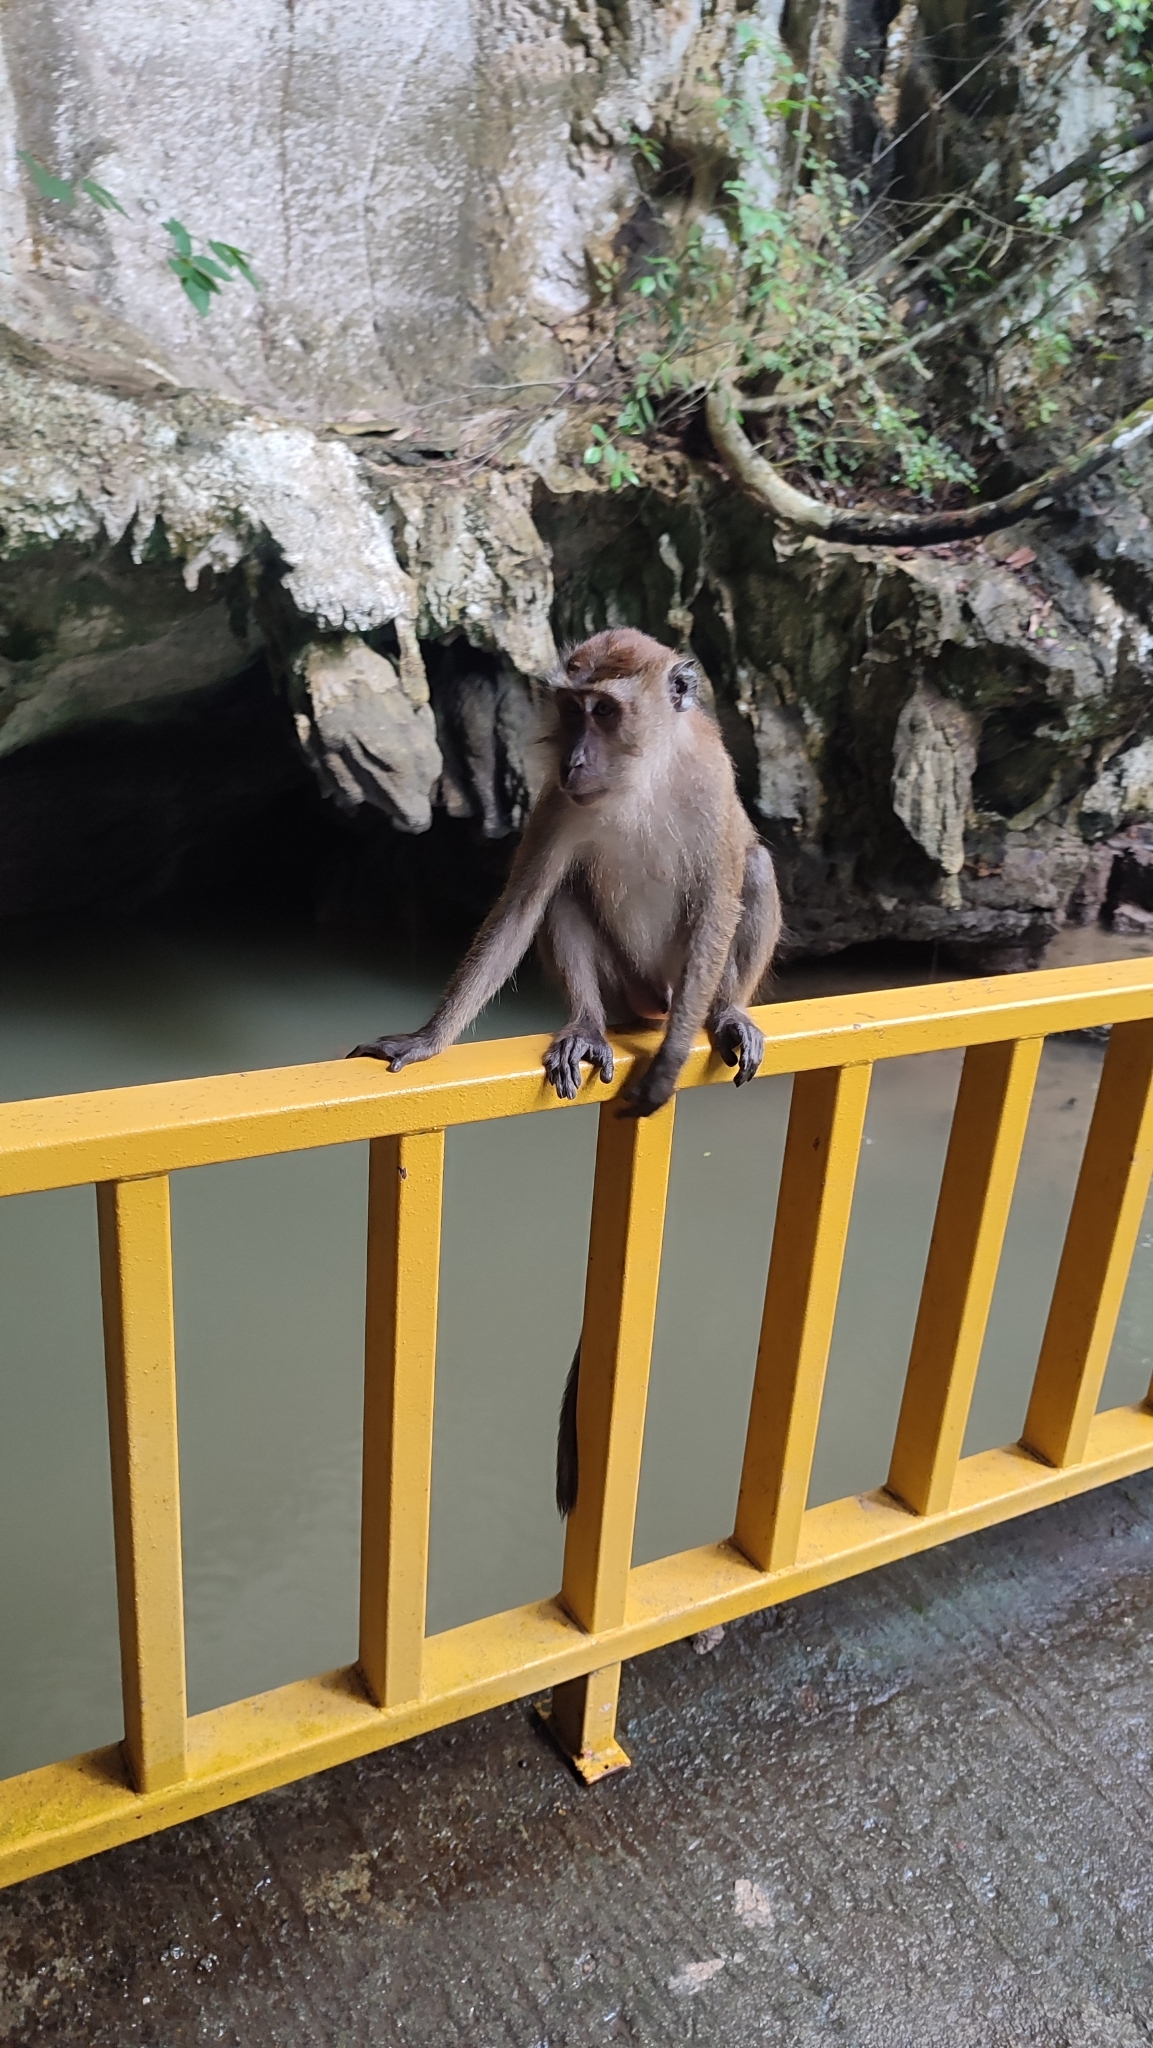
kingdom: Animalia
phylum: Chordata
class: Mammalia
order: Primates
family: Cercopithecidae
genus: Macaca
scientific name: Macaca fascicularis
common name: Crab-eating macaque
